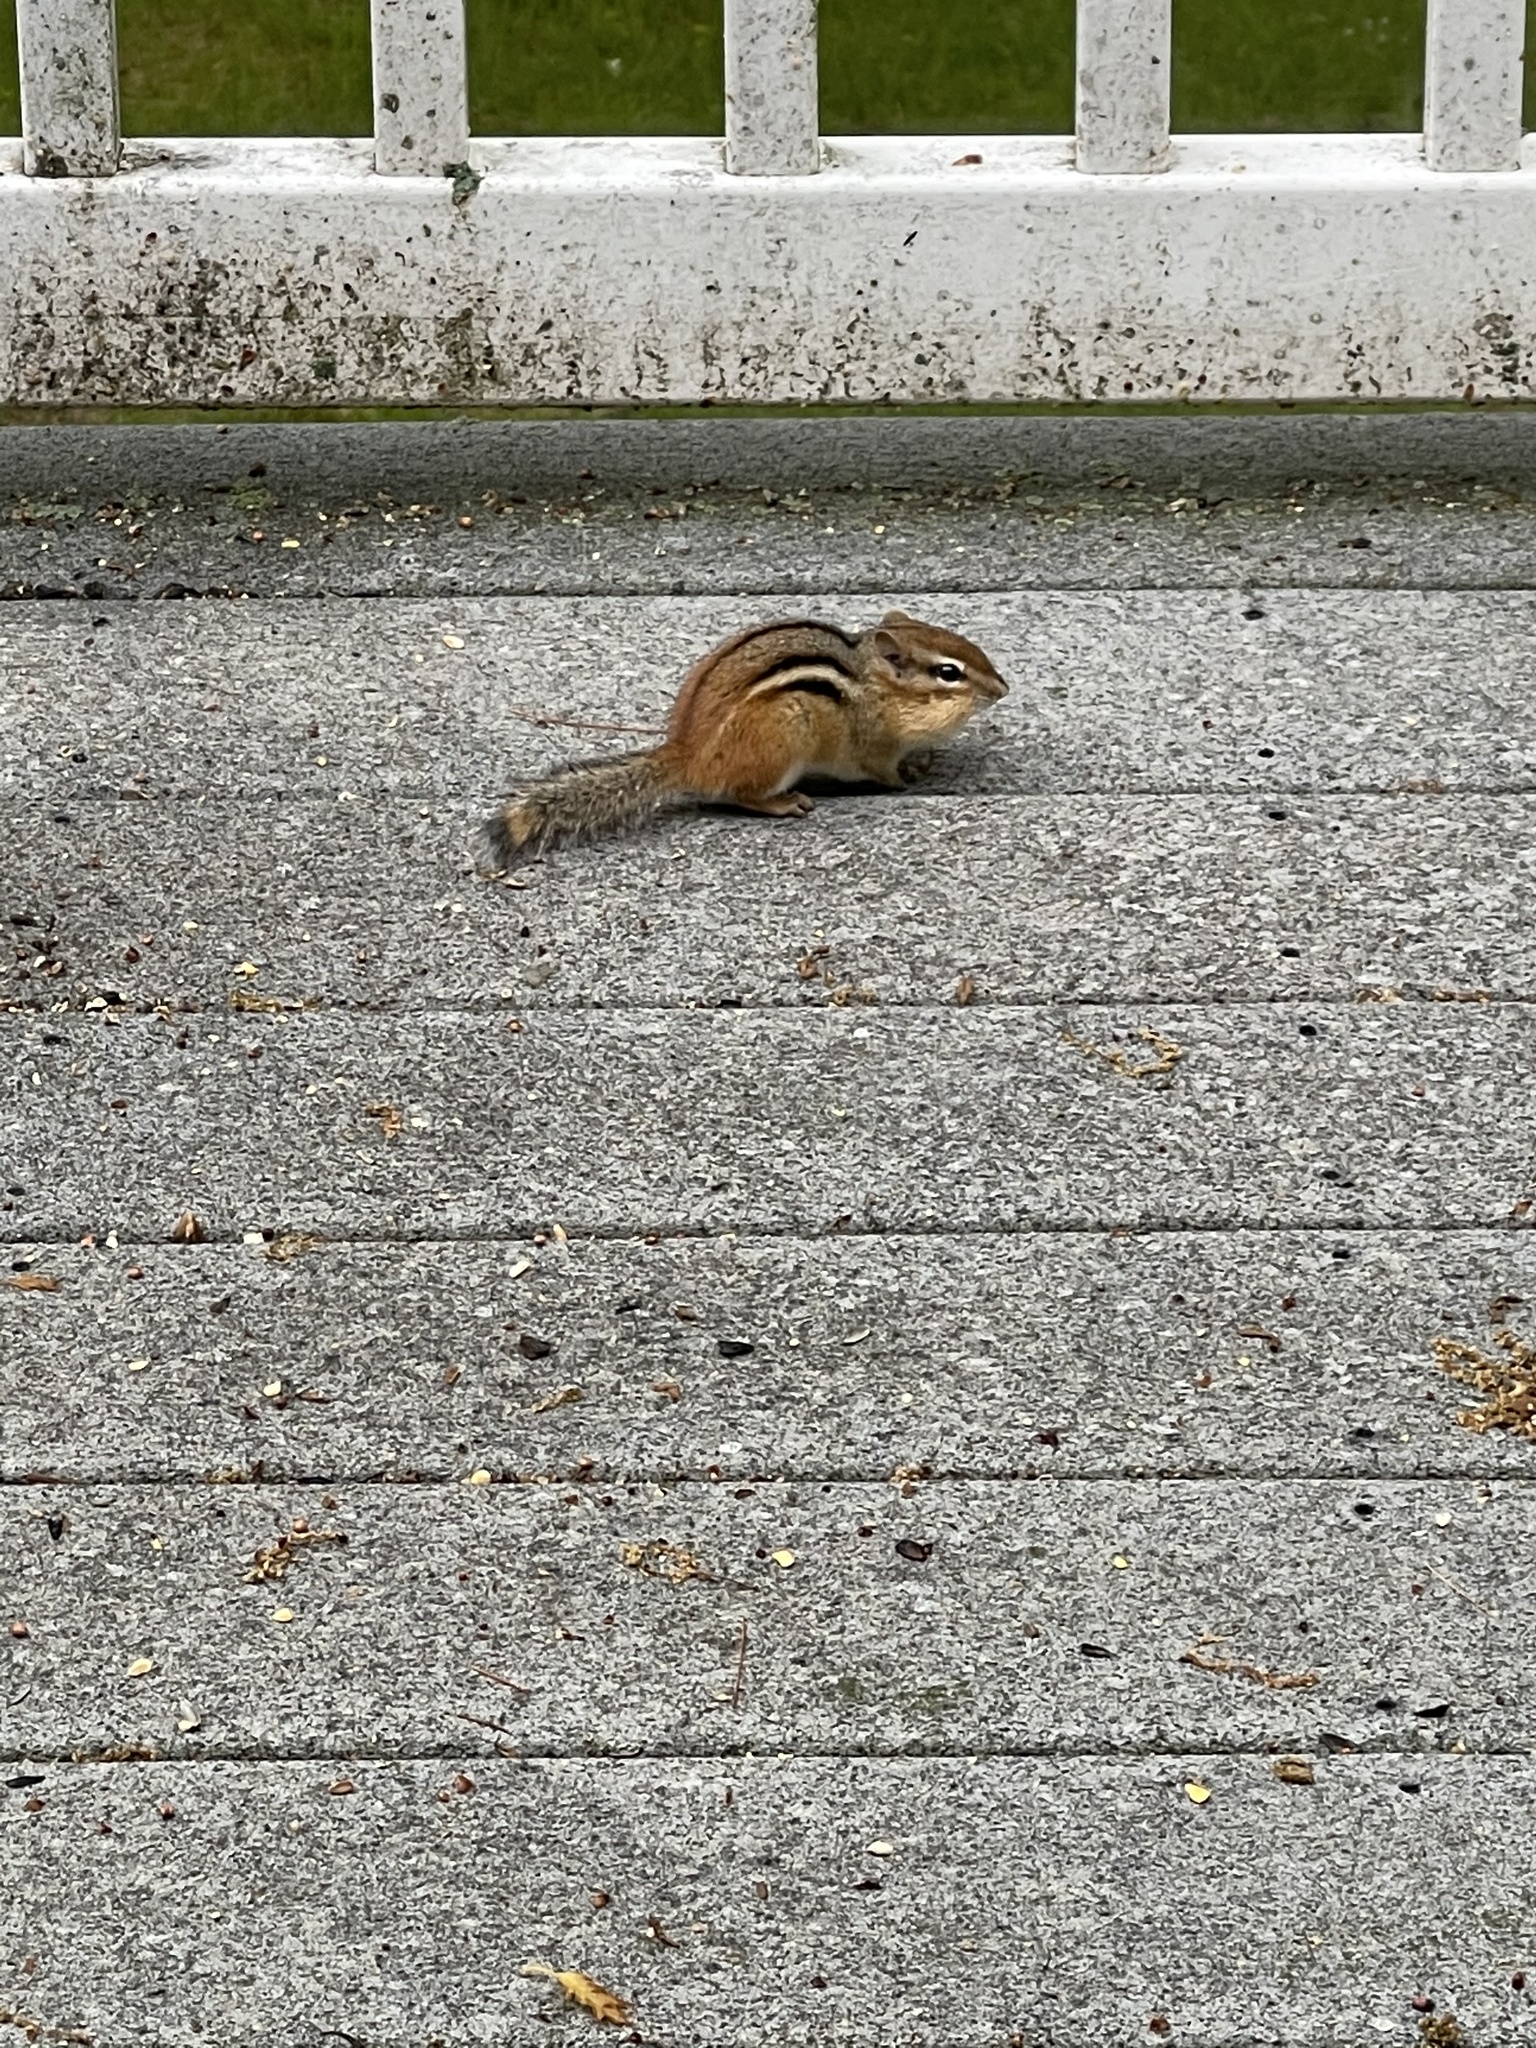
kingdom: Animalia
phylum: Chordata
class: Mammalia
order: Rodentia
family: Sciuridae
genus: Tamias
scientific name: Tamias striatus
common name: Eastern chipmunk
